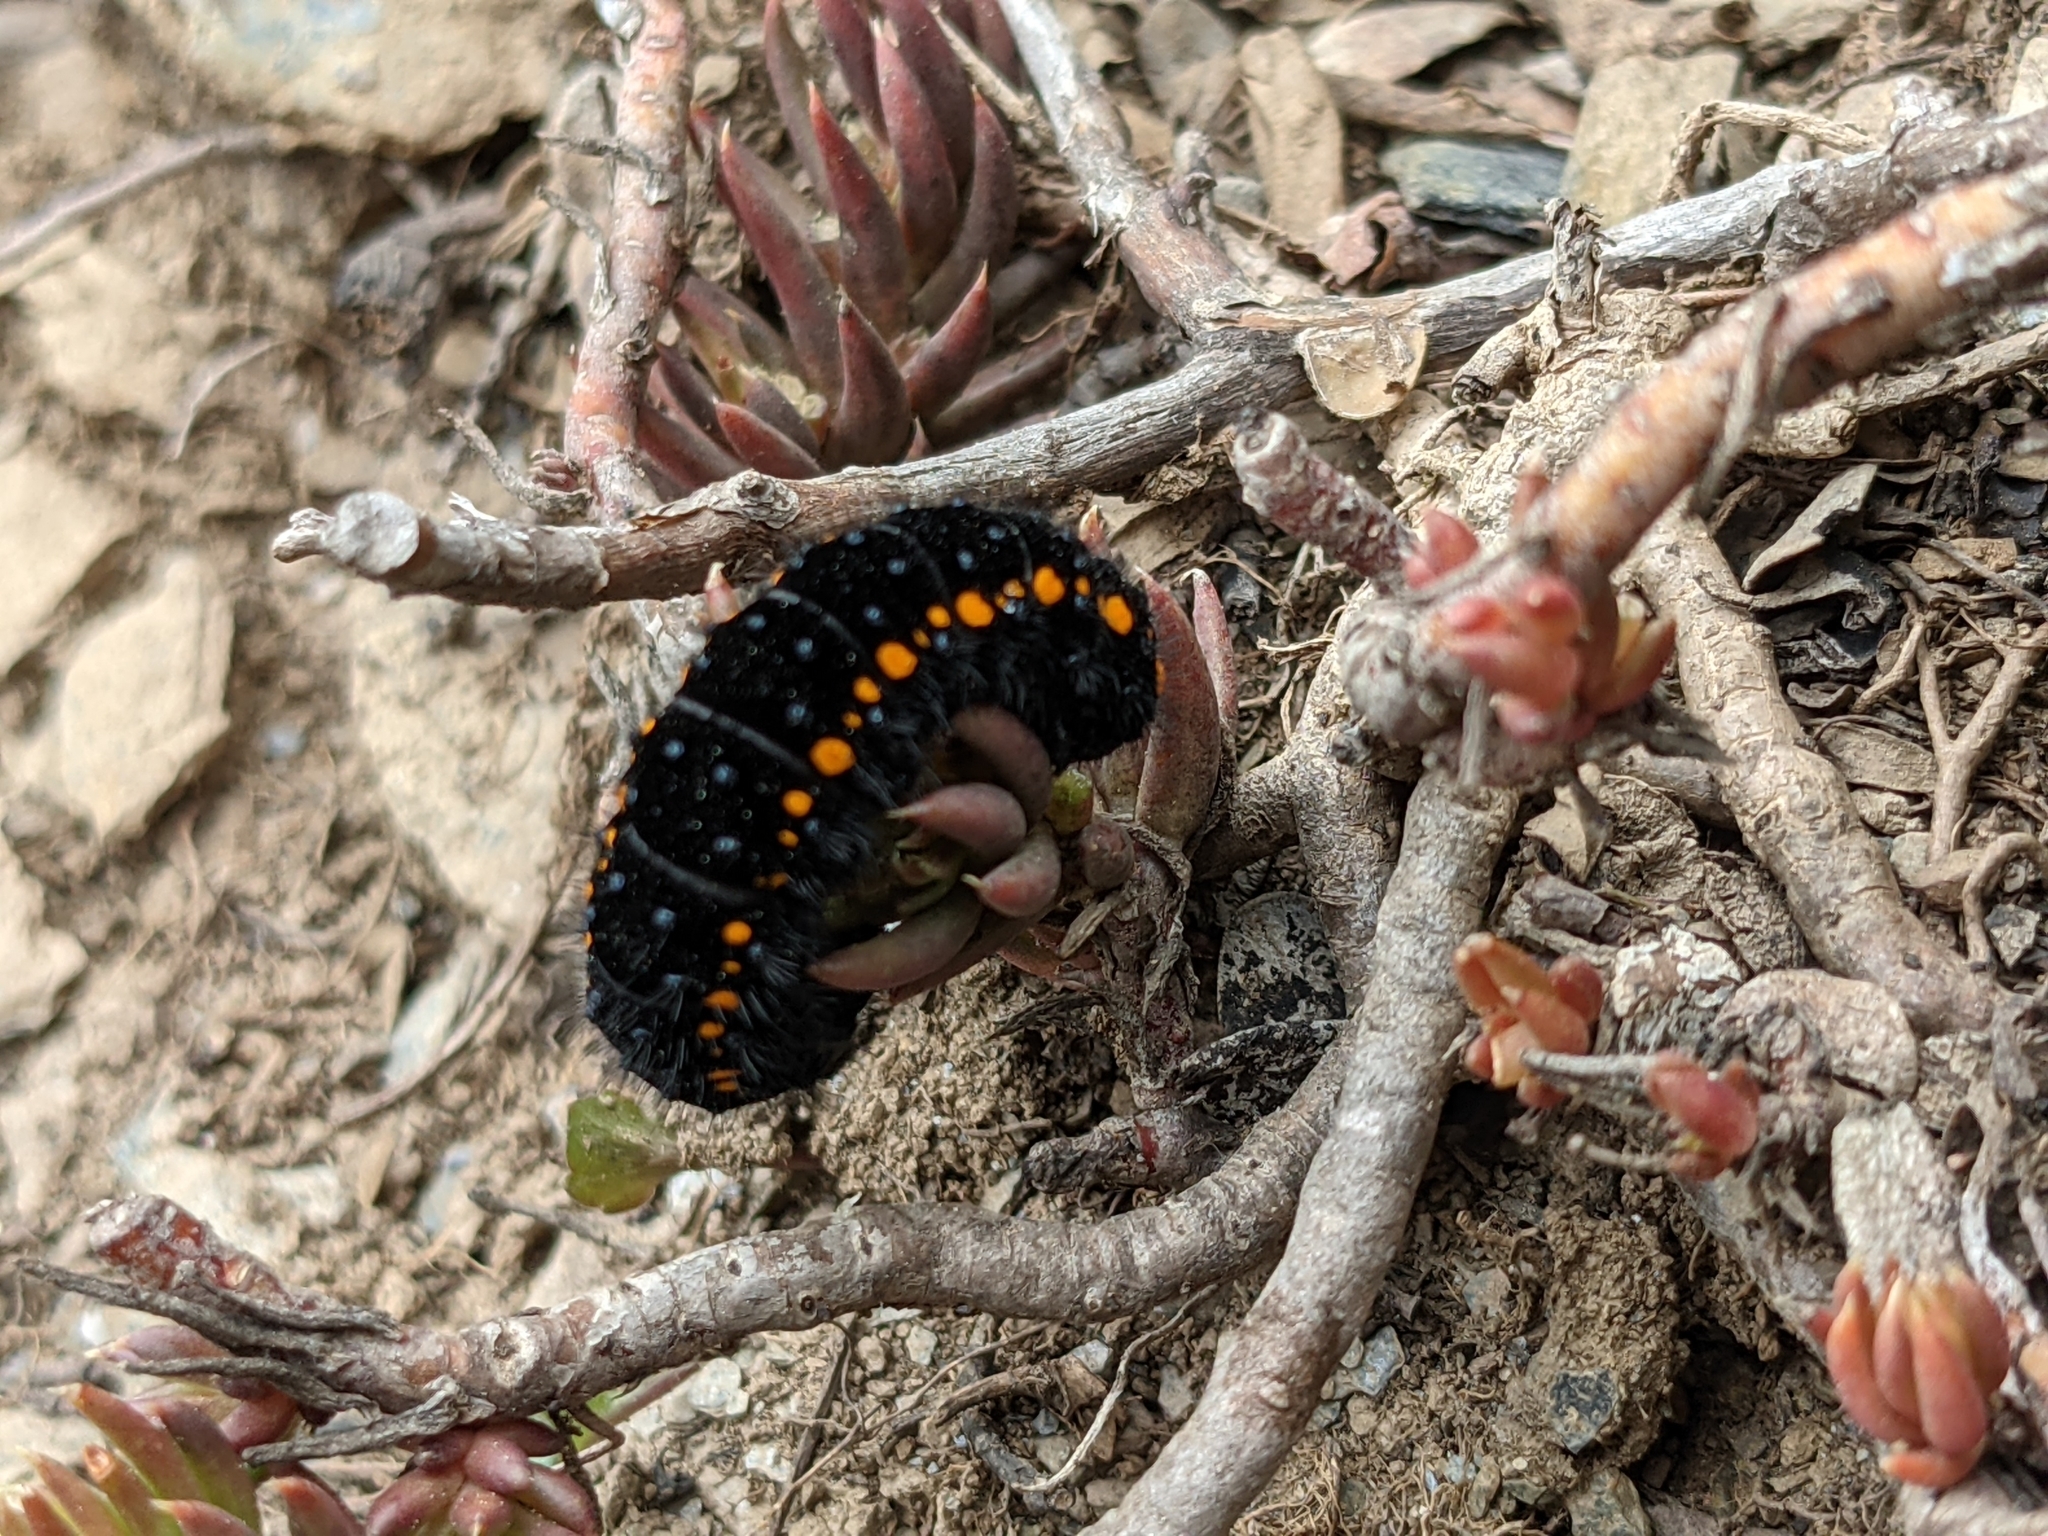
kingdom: Animalia
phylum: Arthropoda
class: Insecta
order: Lepidoptera
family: Papilionidae
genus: Parnassius
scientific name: Parnassius apollo
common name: Apollo
